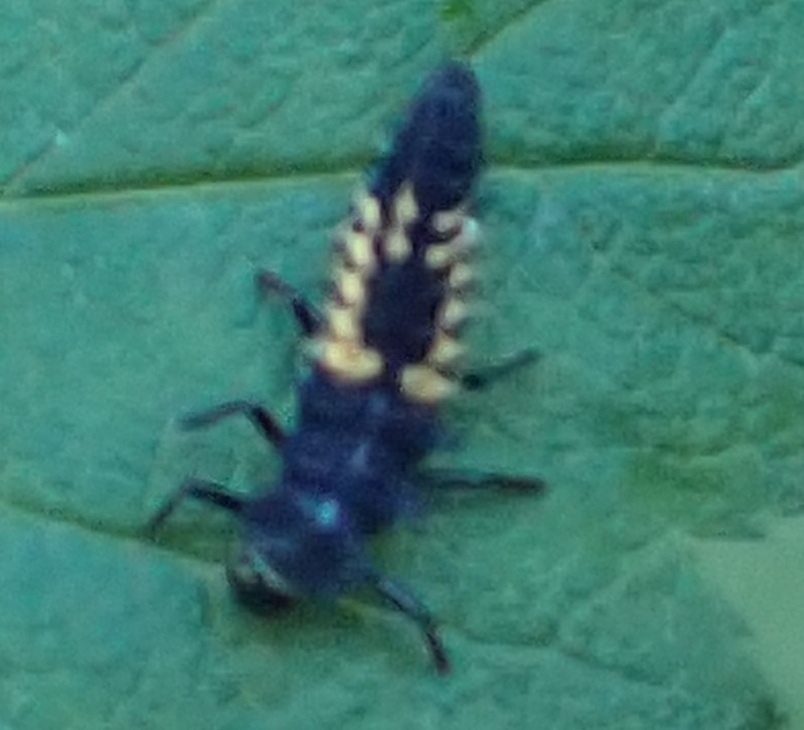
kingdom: Animalia
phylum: Arthropoda
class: Insecta
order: Coleoptera
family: Coccinellidae
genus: Harmonia
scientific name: Harmonia axyridis
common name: Harlequin ladybird
